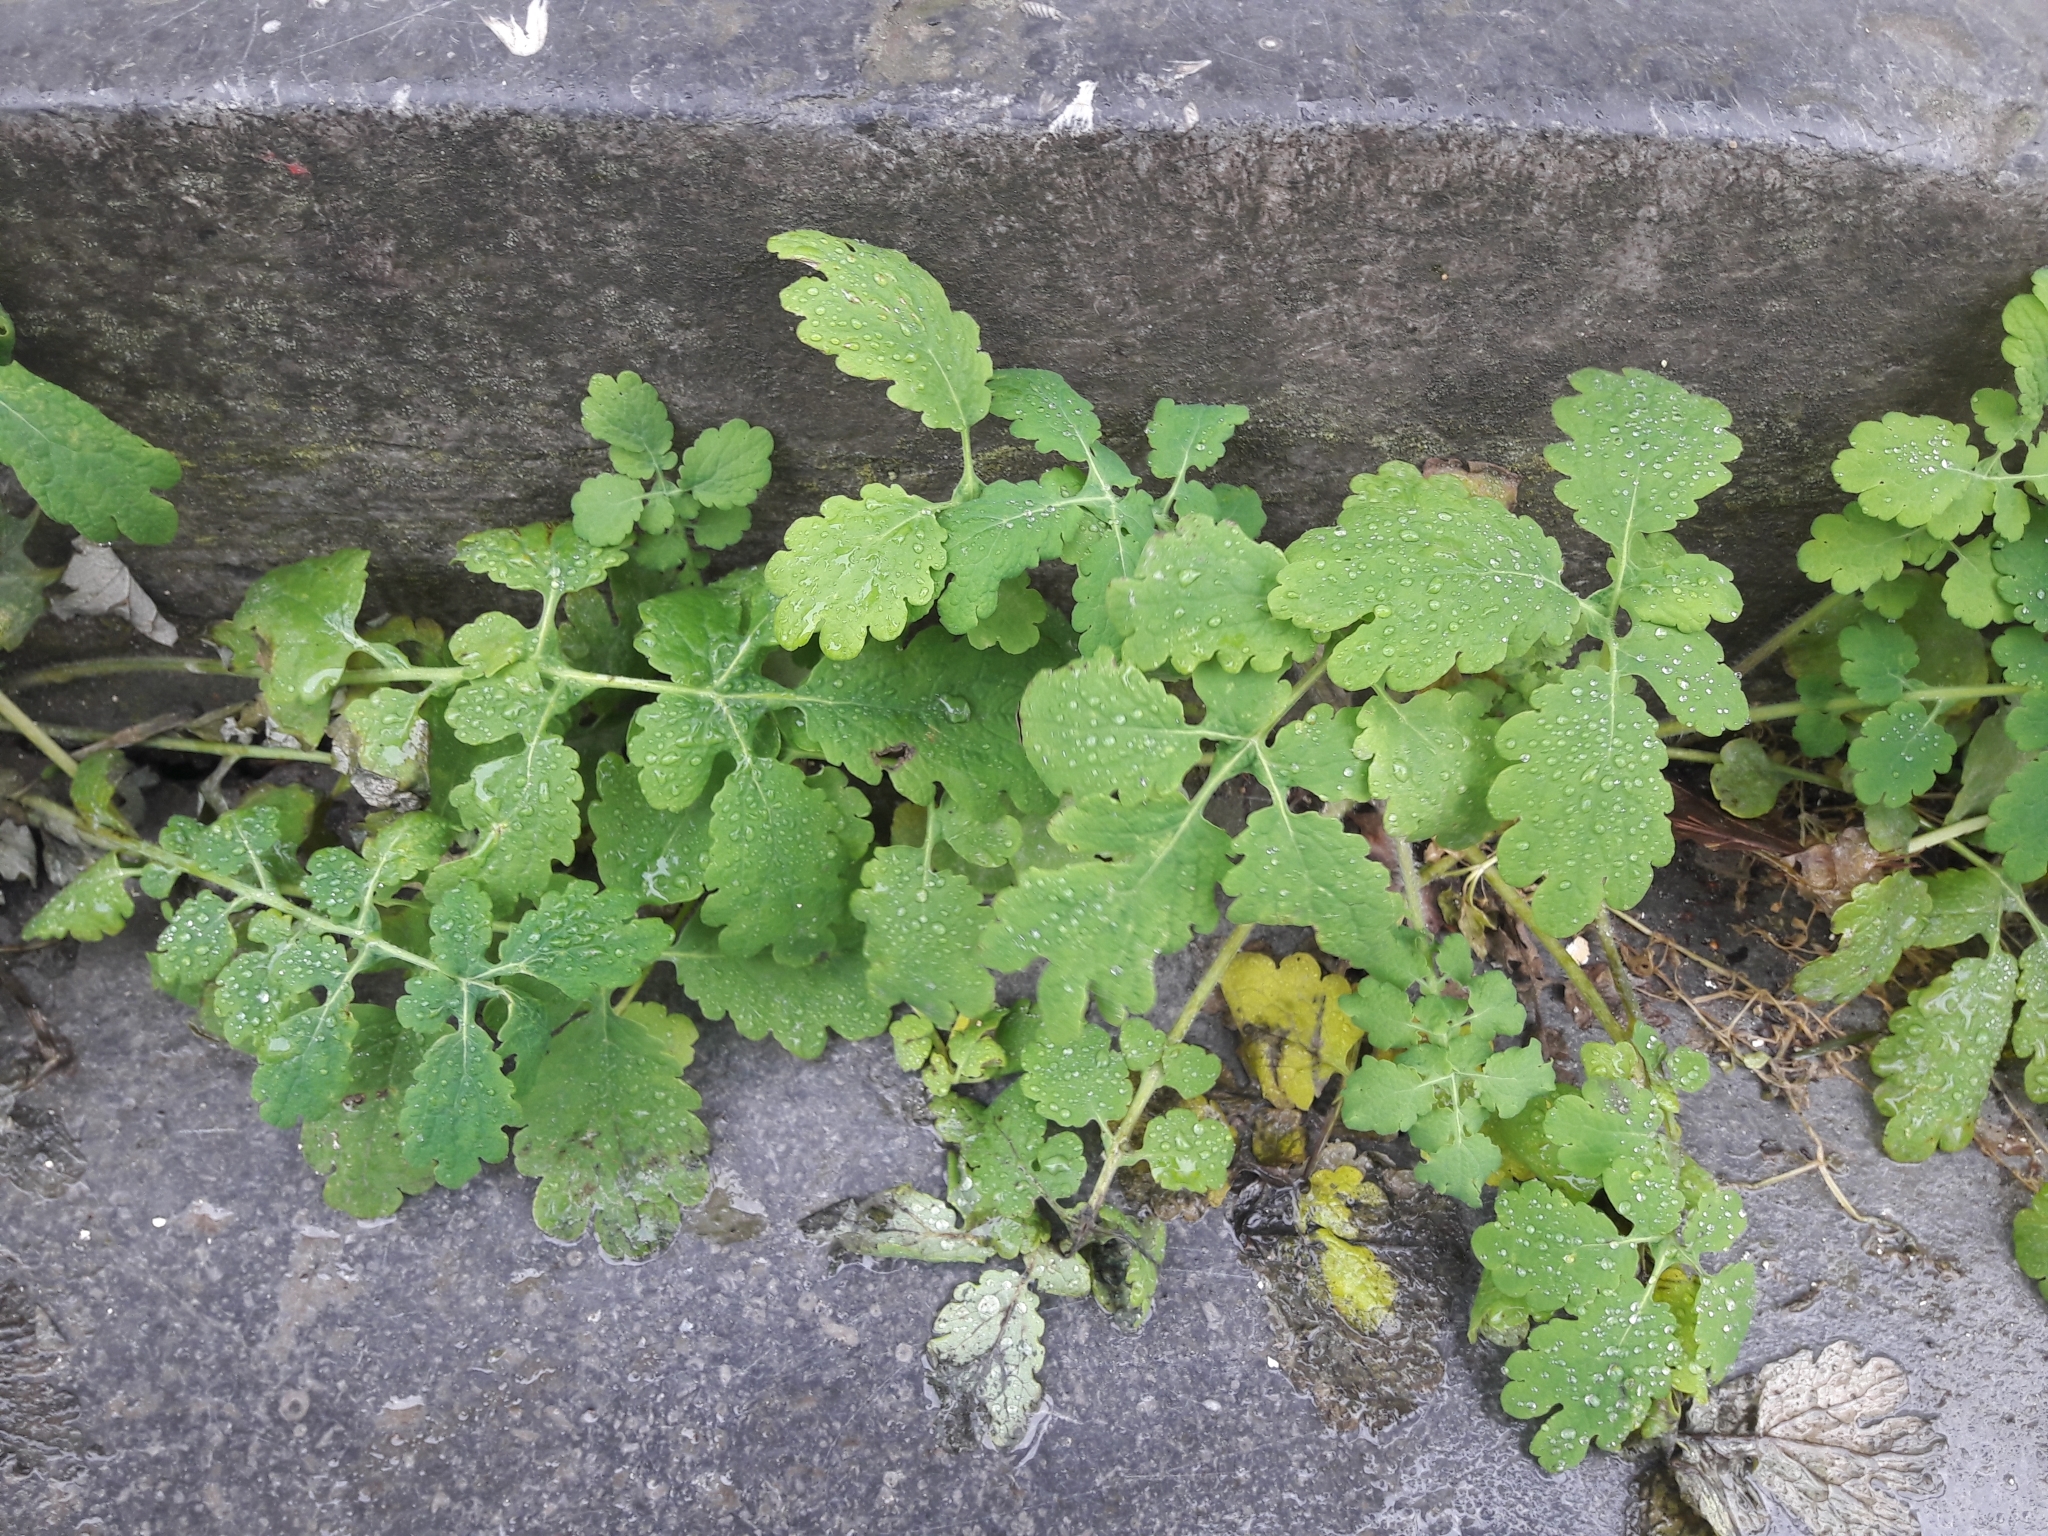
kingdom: Plantae
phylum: Tracheophyta
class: Magnoliopsida
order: Ranunculales
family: Papaveraceae
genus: Chelidonium
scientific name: Chelidonium majus
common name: Greater celandine
